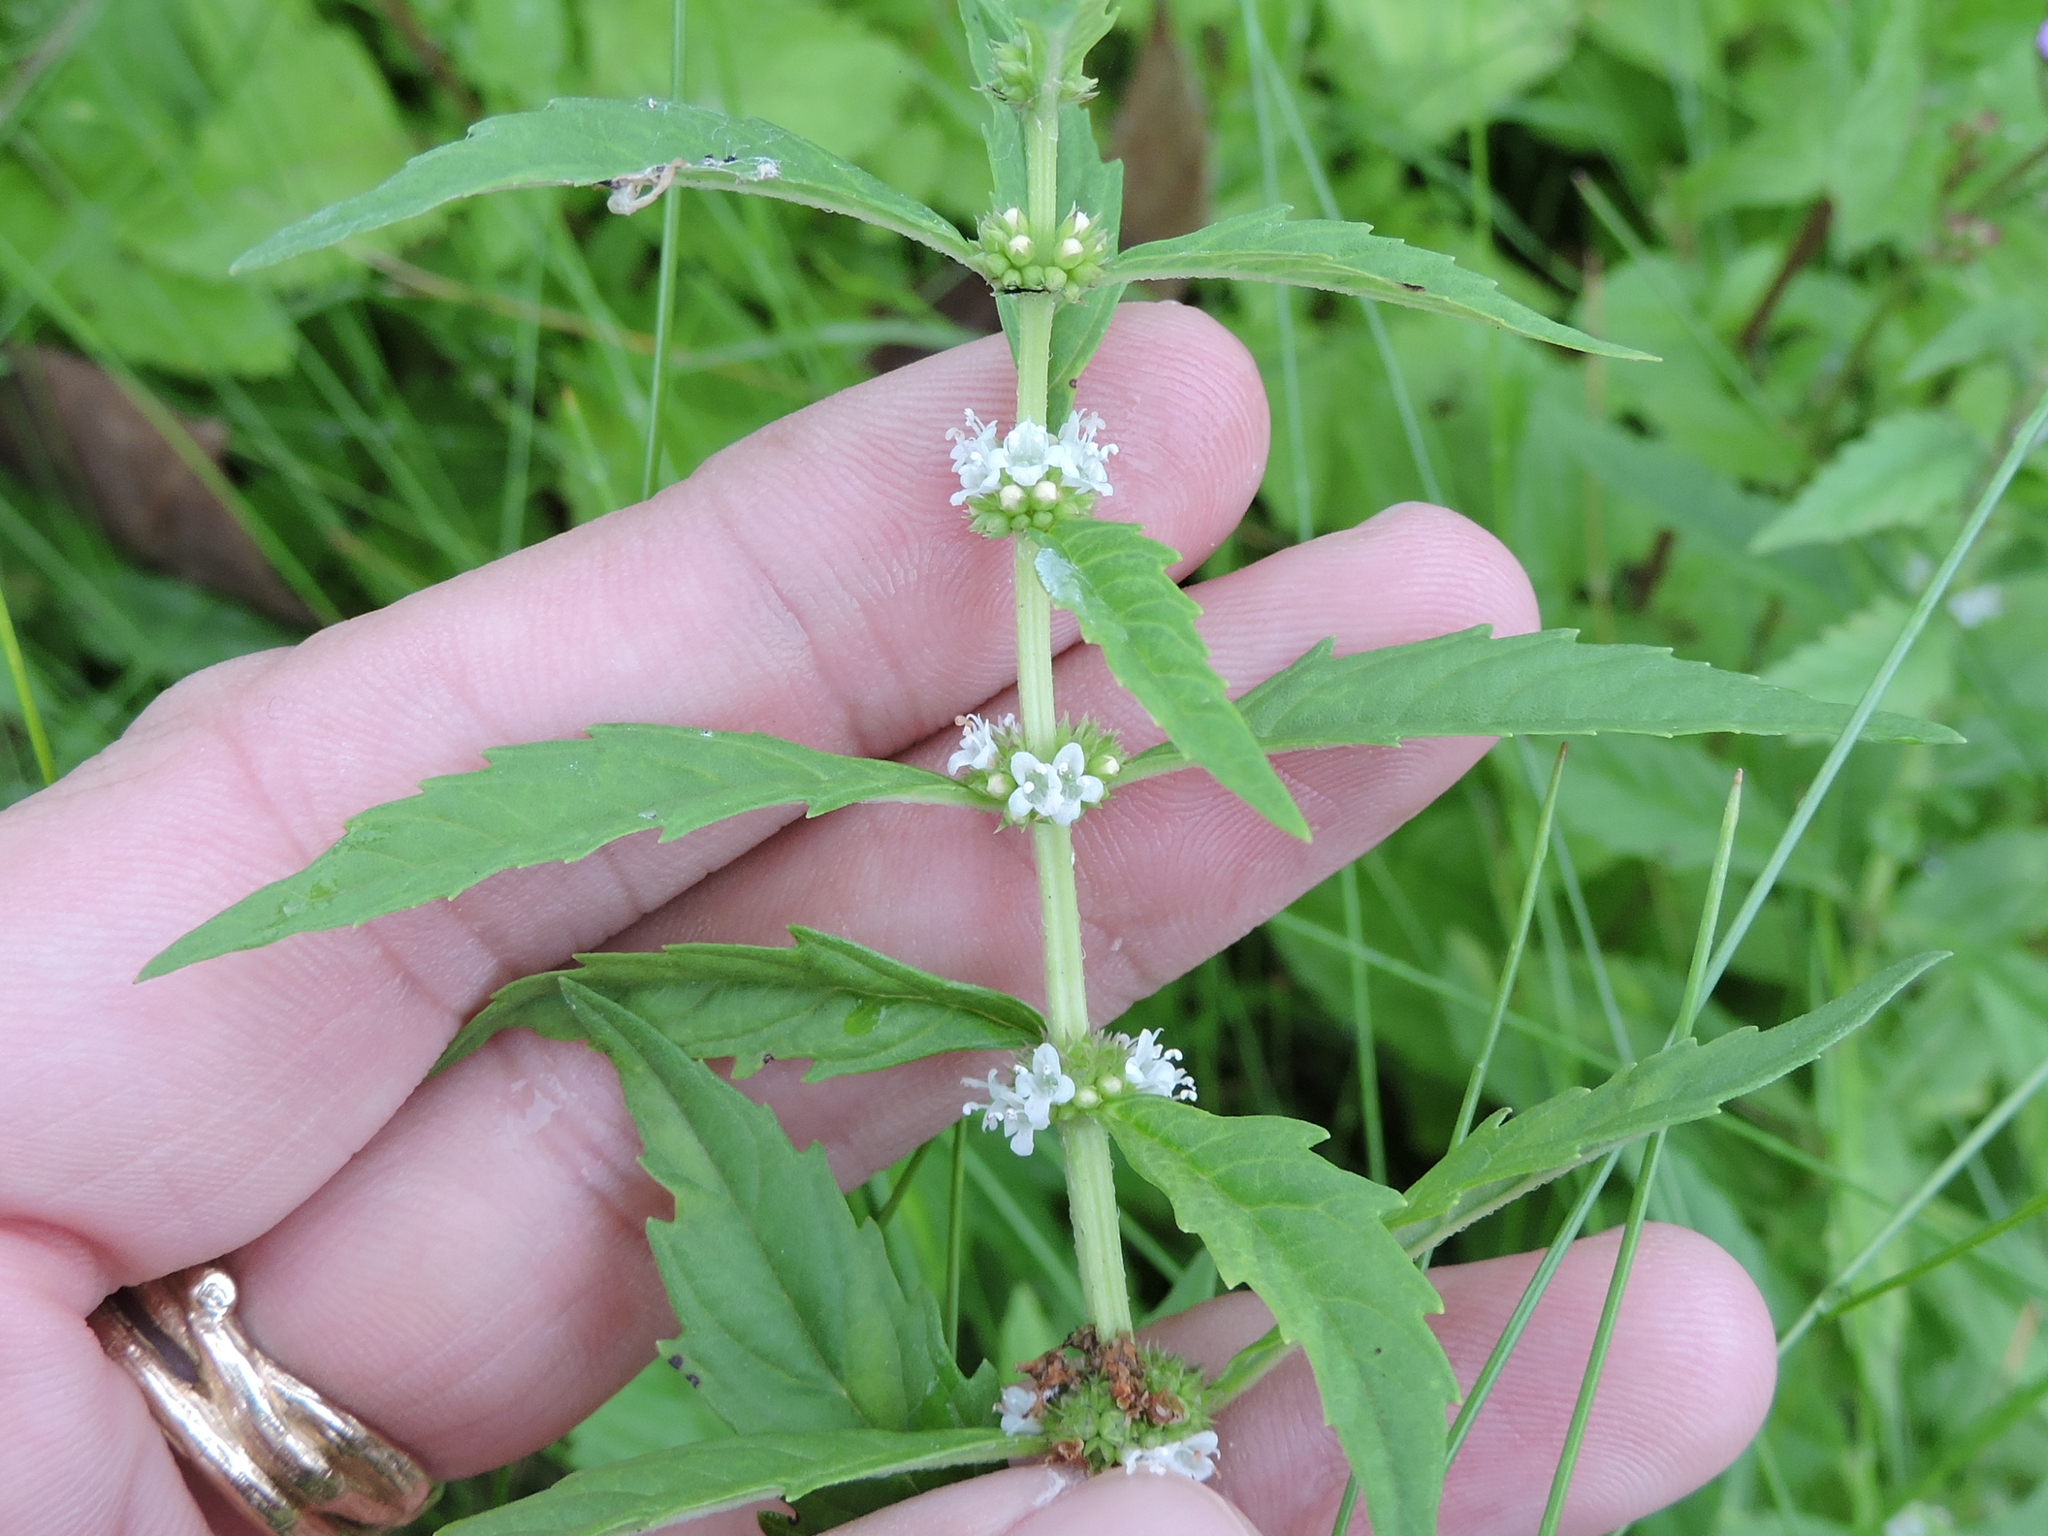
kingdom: Plantae
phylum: Tracheophyta
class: Magnoliopsida
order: Lamiales
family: Lamiaceae
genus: Lycopus
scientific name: Lycopus virginicus
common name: Bugleweed
